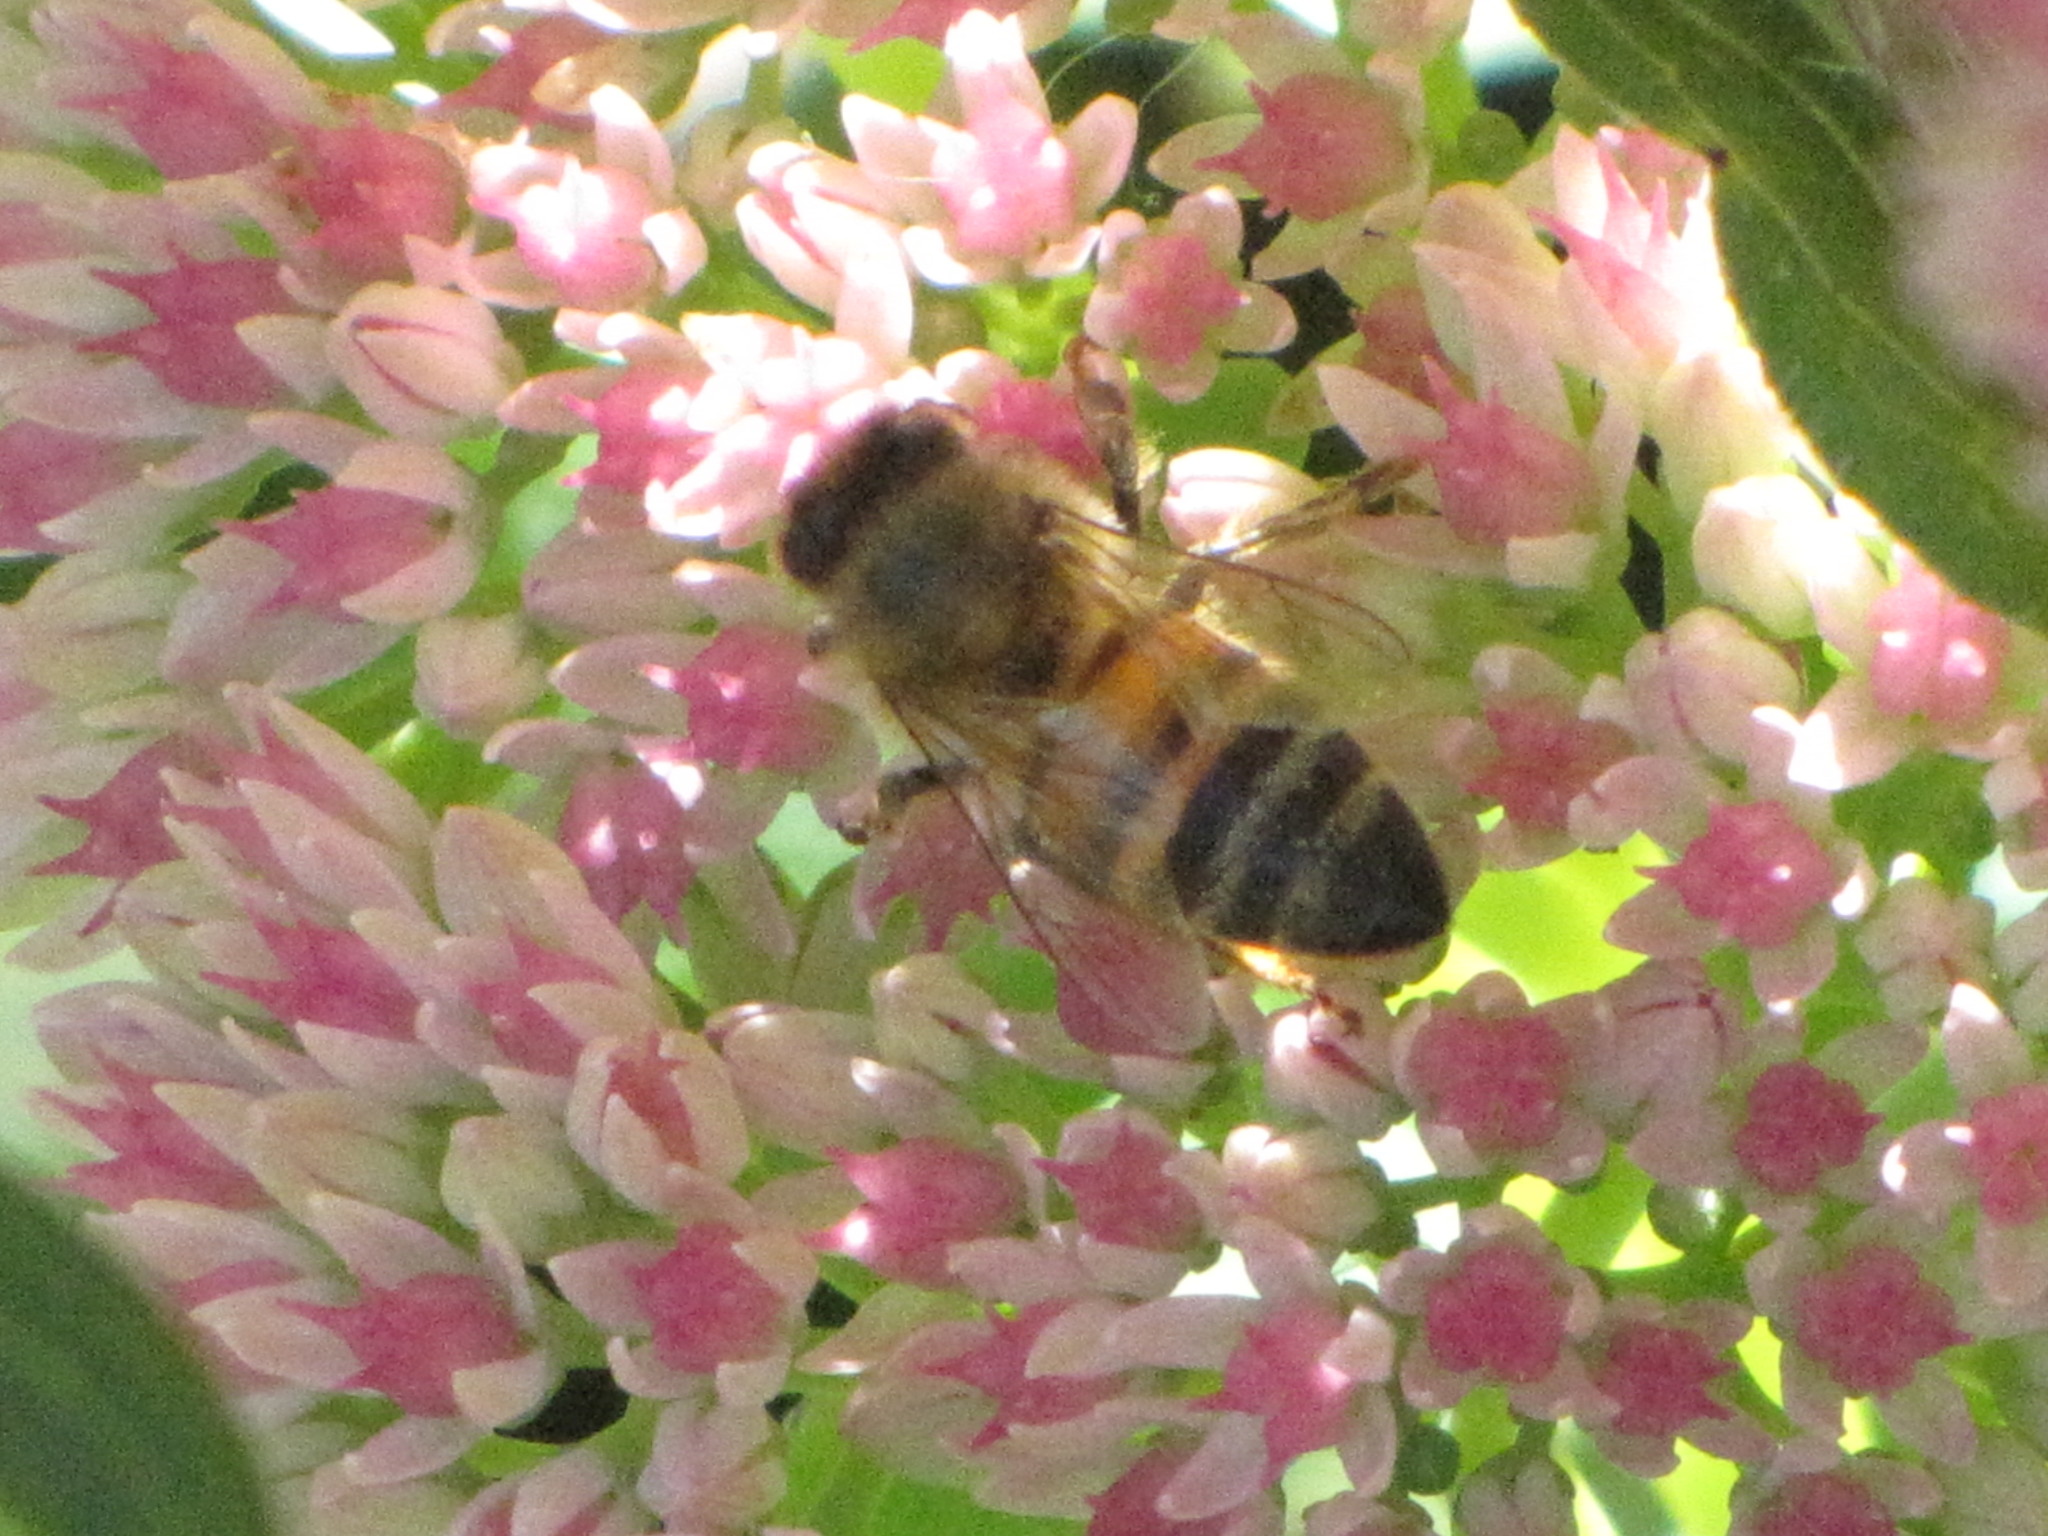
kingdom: Animalia
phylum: Arthropoda
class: Insecta
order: Hymenoptera
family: Apidae
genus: Apis
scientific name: Apis mellifera
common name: Honey bee
